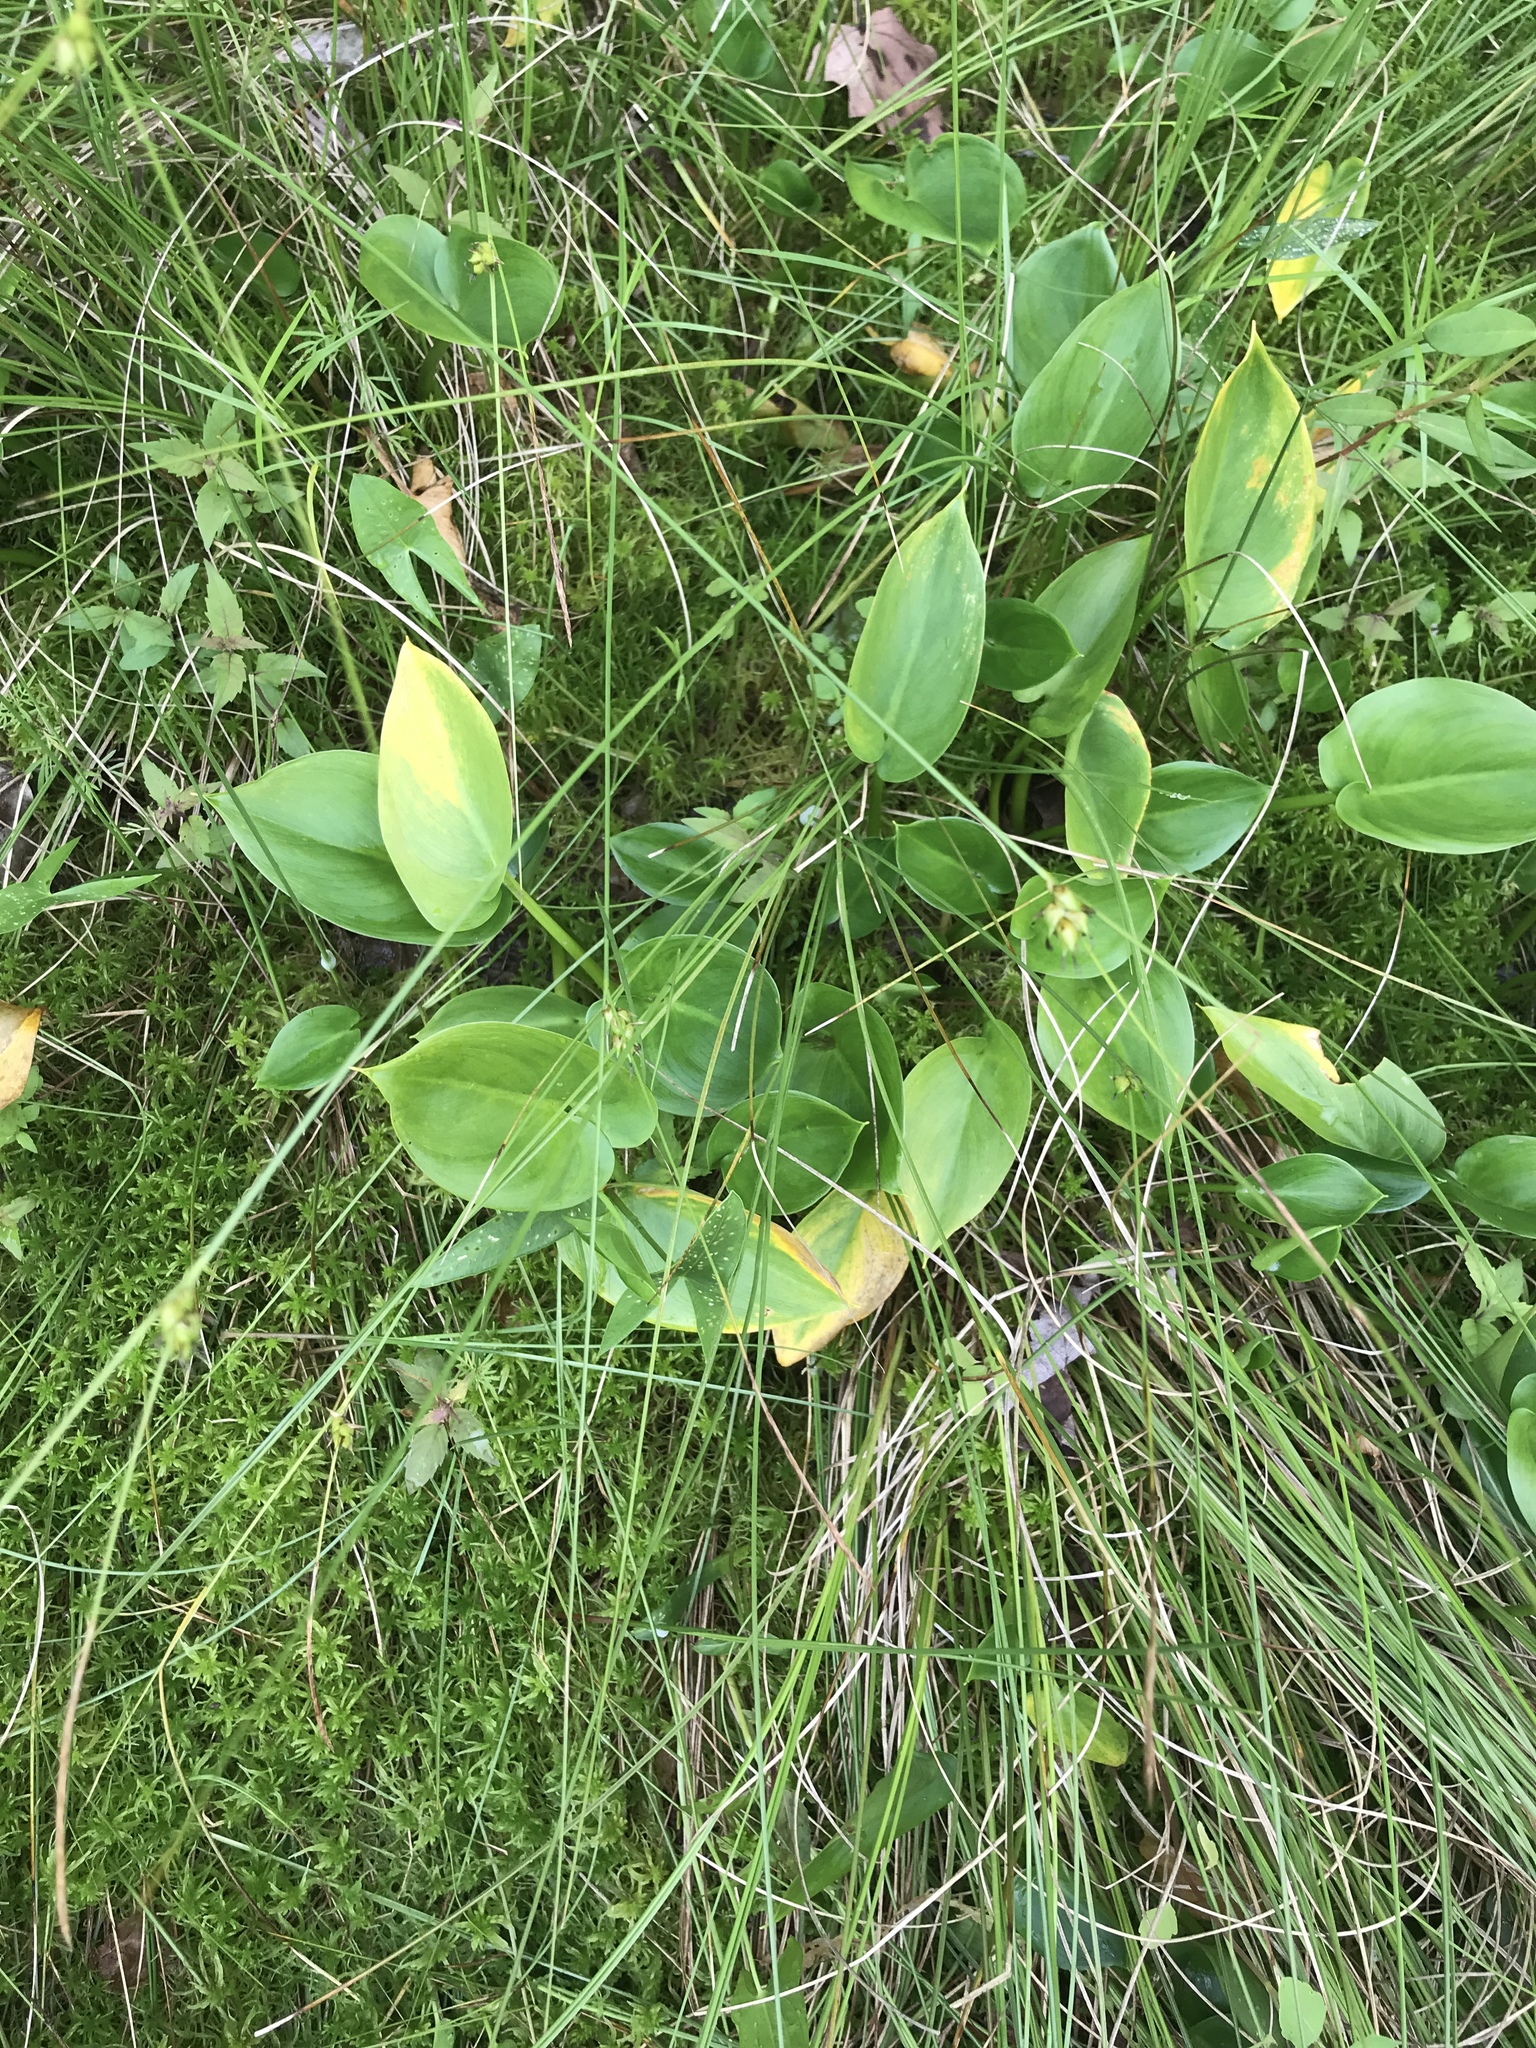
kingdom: Plantae
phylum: Tracheophyta
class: Liliopsida
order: Alismatales
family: Araceae
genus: Calla
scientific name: Calla palustris
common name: Bog arum
